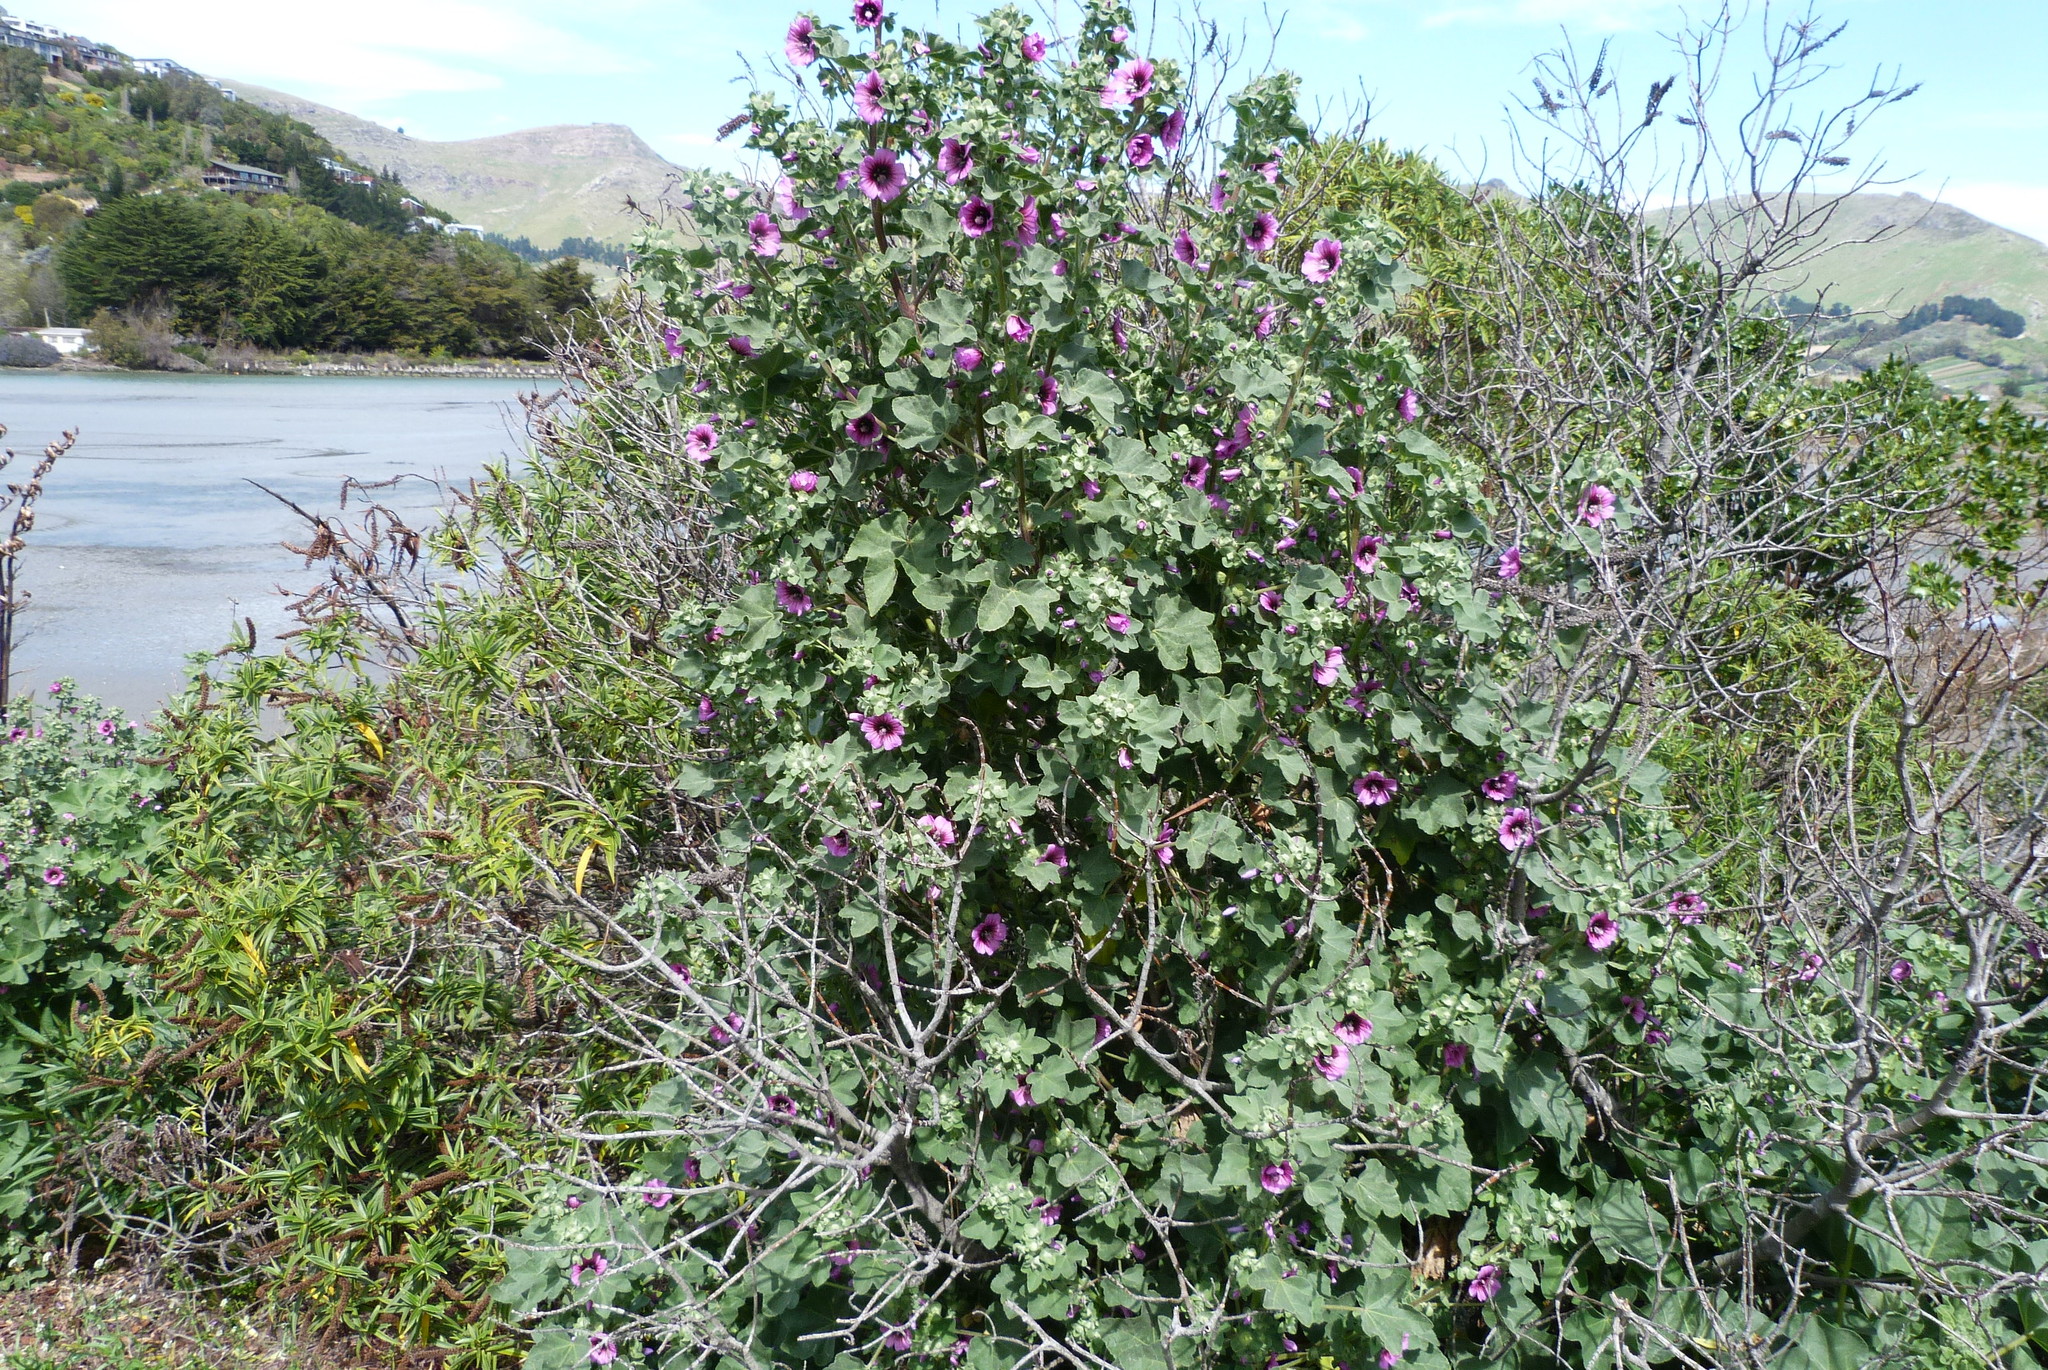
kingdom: Plantae
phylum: Tracheophyta
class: Magnoliopsida
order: Malvales
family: Malvaceae
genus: Malva
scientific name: Malva arborea
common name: Tree mallow
